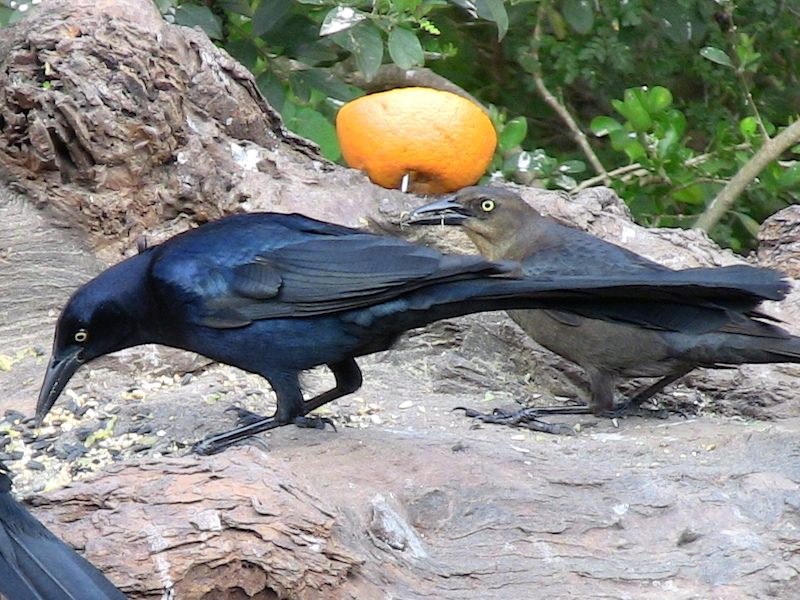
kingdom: Animalia
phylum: Chordata
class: Aves
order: Passeriformes
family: Icteridae
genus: Quiscalus
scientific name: Quiscalus mexicanus
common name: Great-tailed grackle
